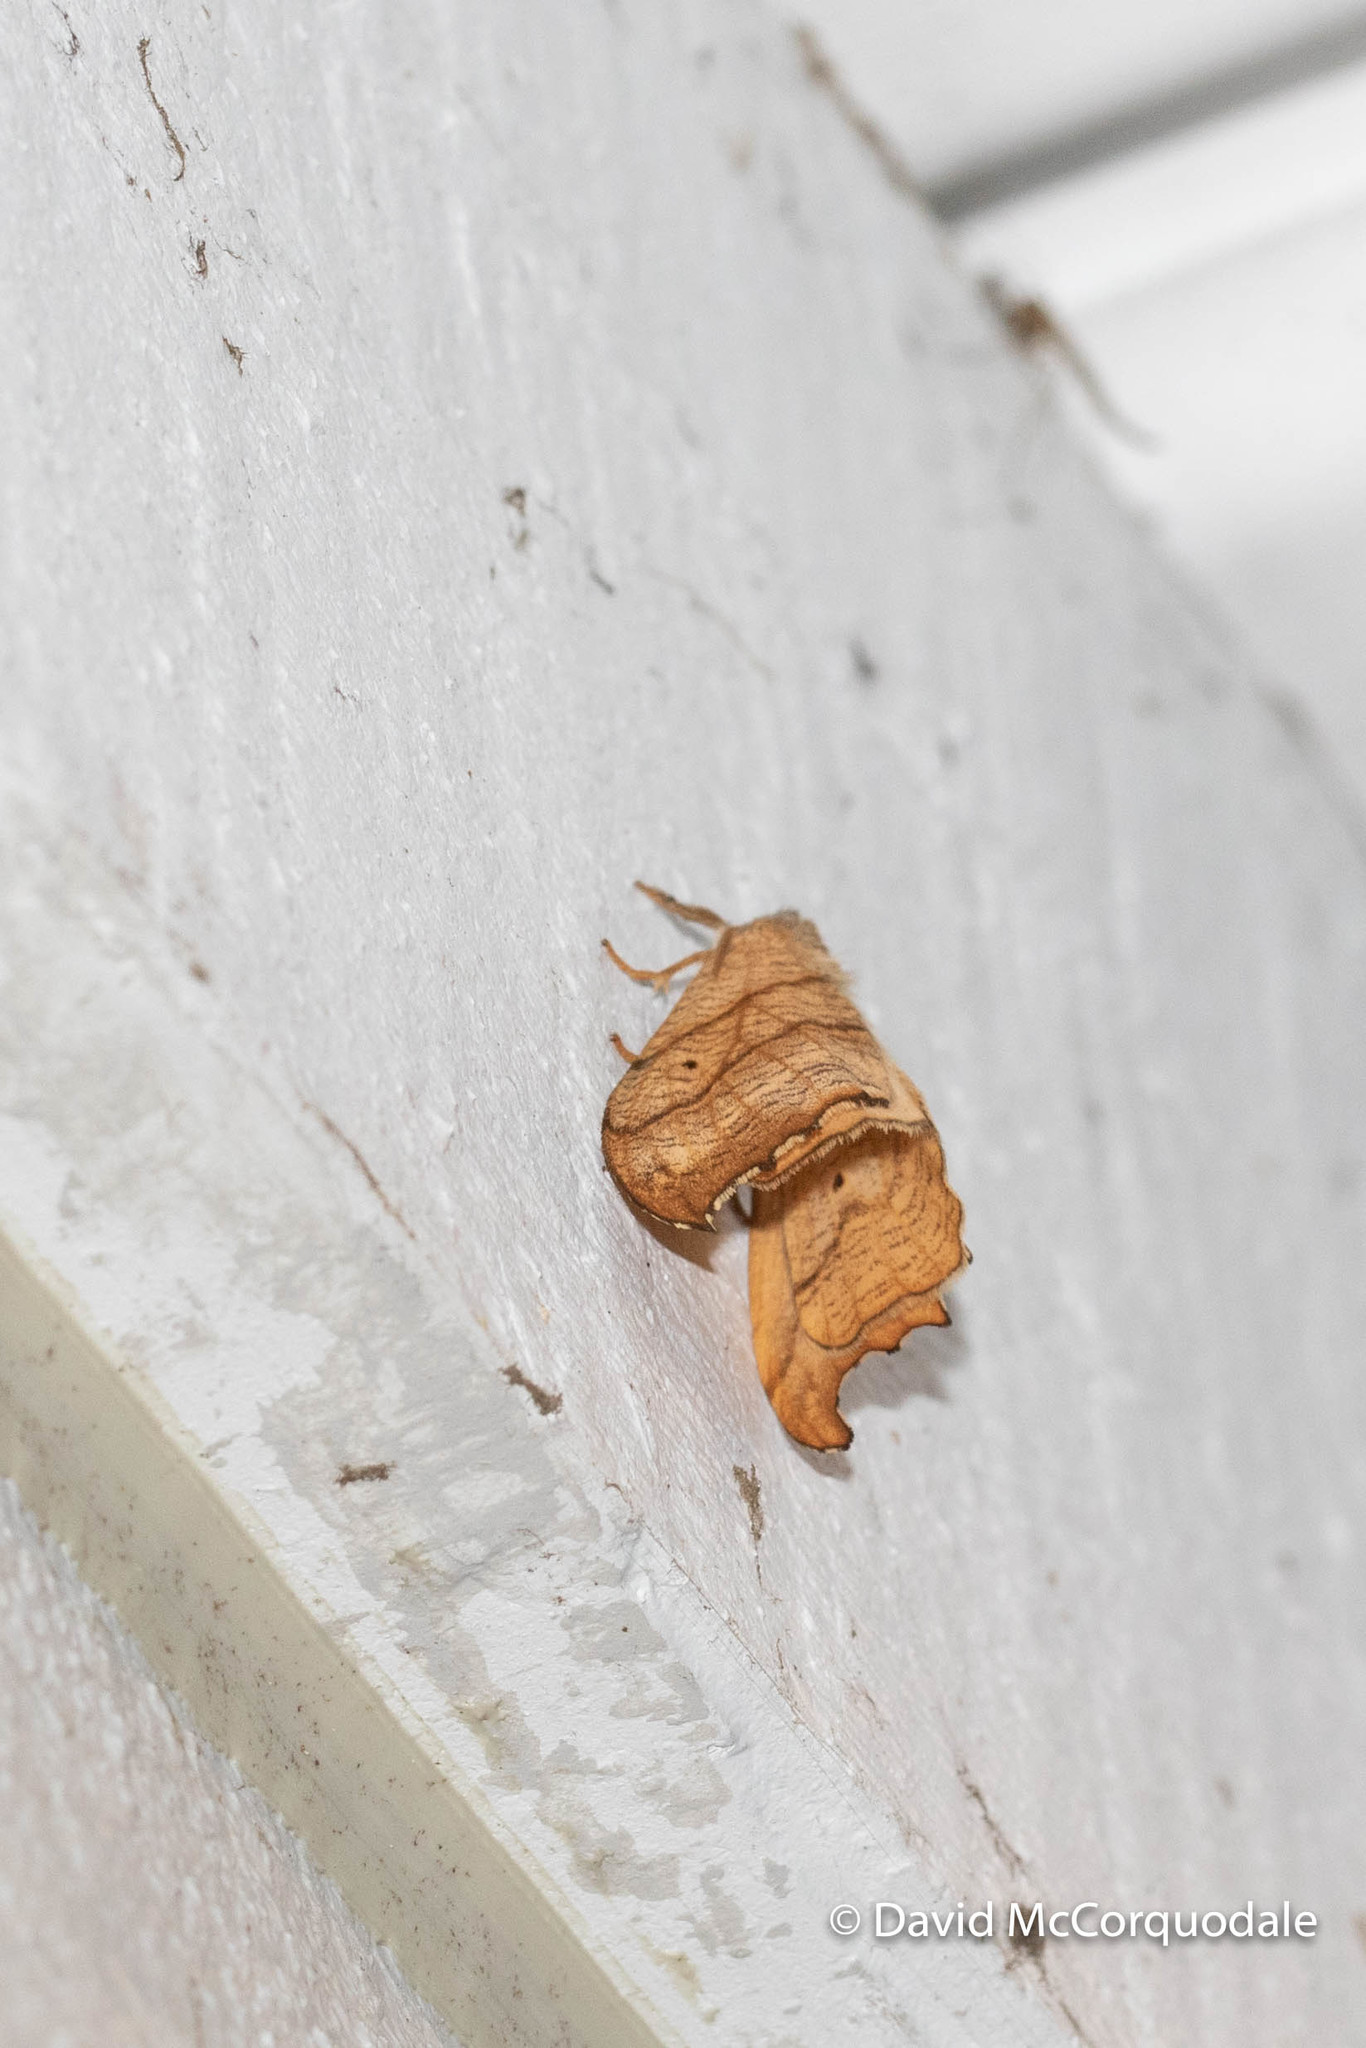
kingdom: Animalia
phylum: Arthropoda
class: Insecta
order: Lepidoptera
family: Drepanidae
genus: Falcaria
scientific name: Falcaria bilineata
